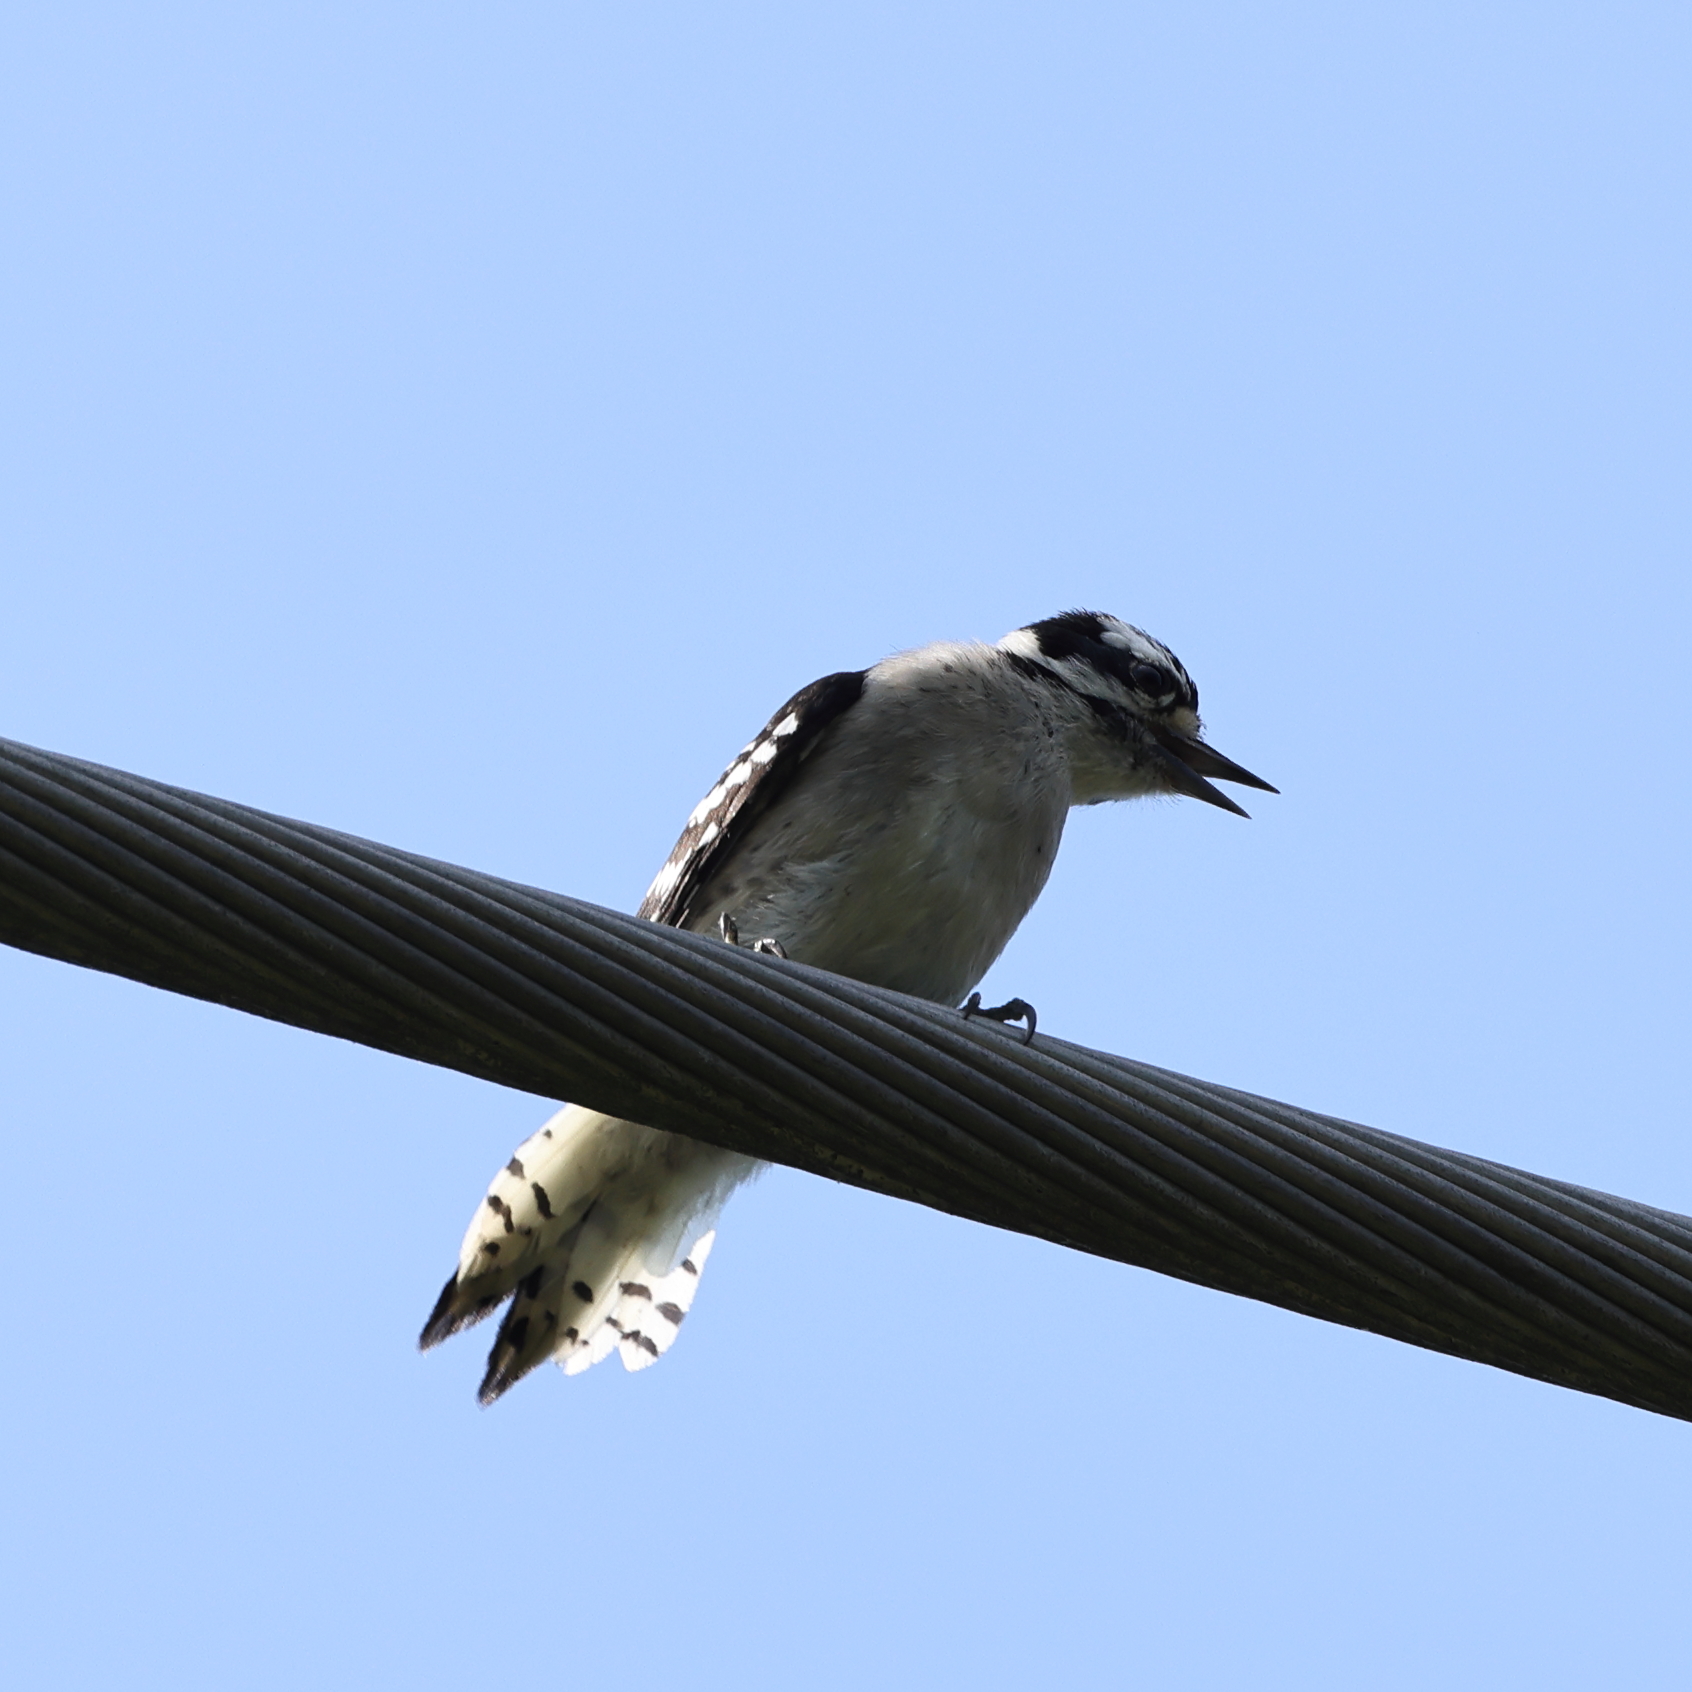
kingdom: Animalia
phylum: Chordata
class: Aves
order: Piciformes
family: Picidae
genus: Dryobates
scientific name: Dryobates pubescens
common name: Downy woodpecker
